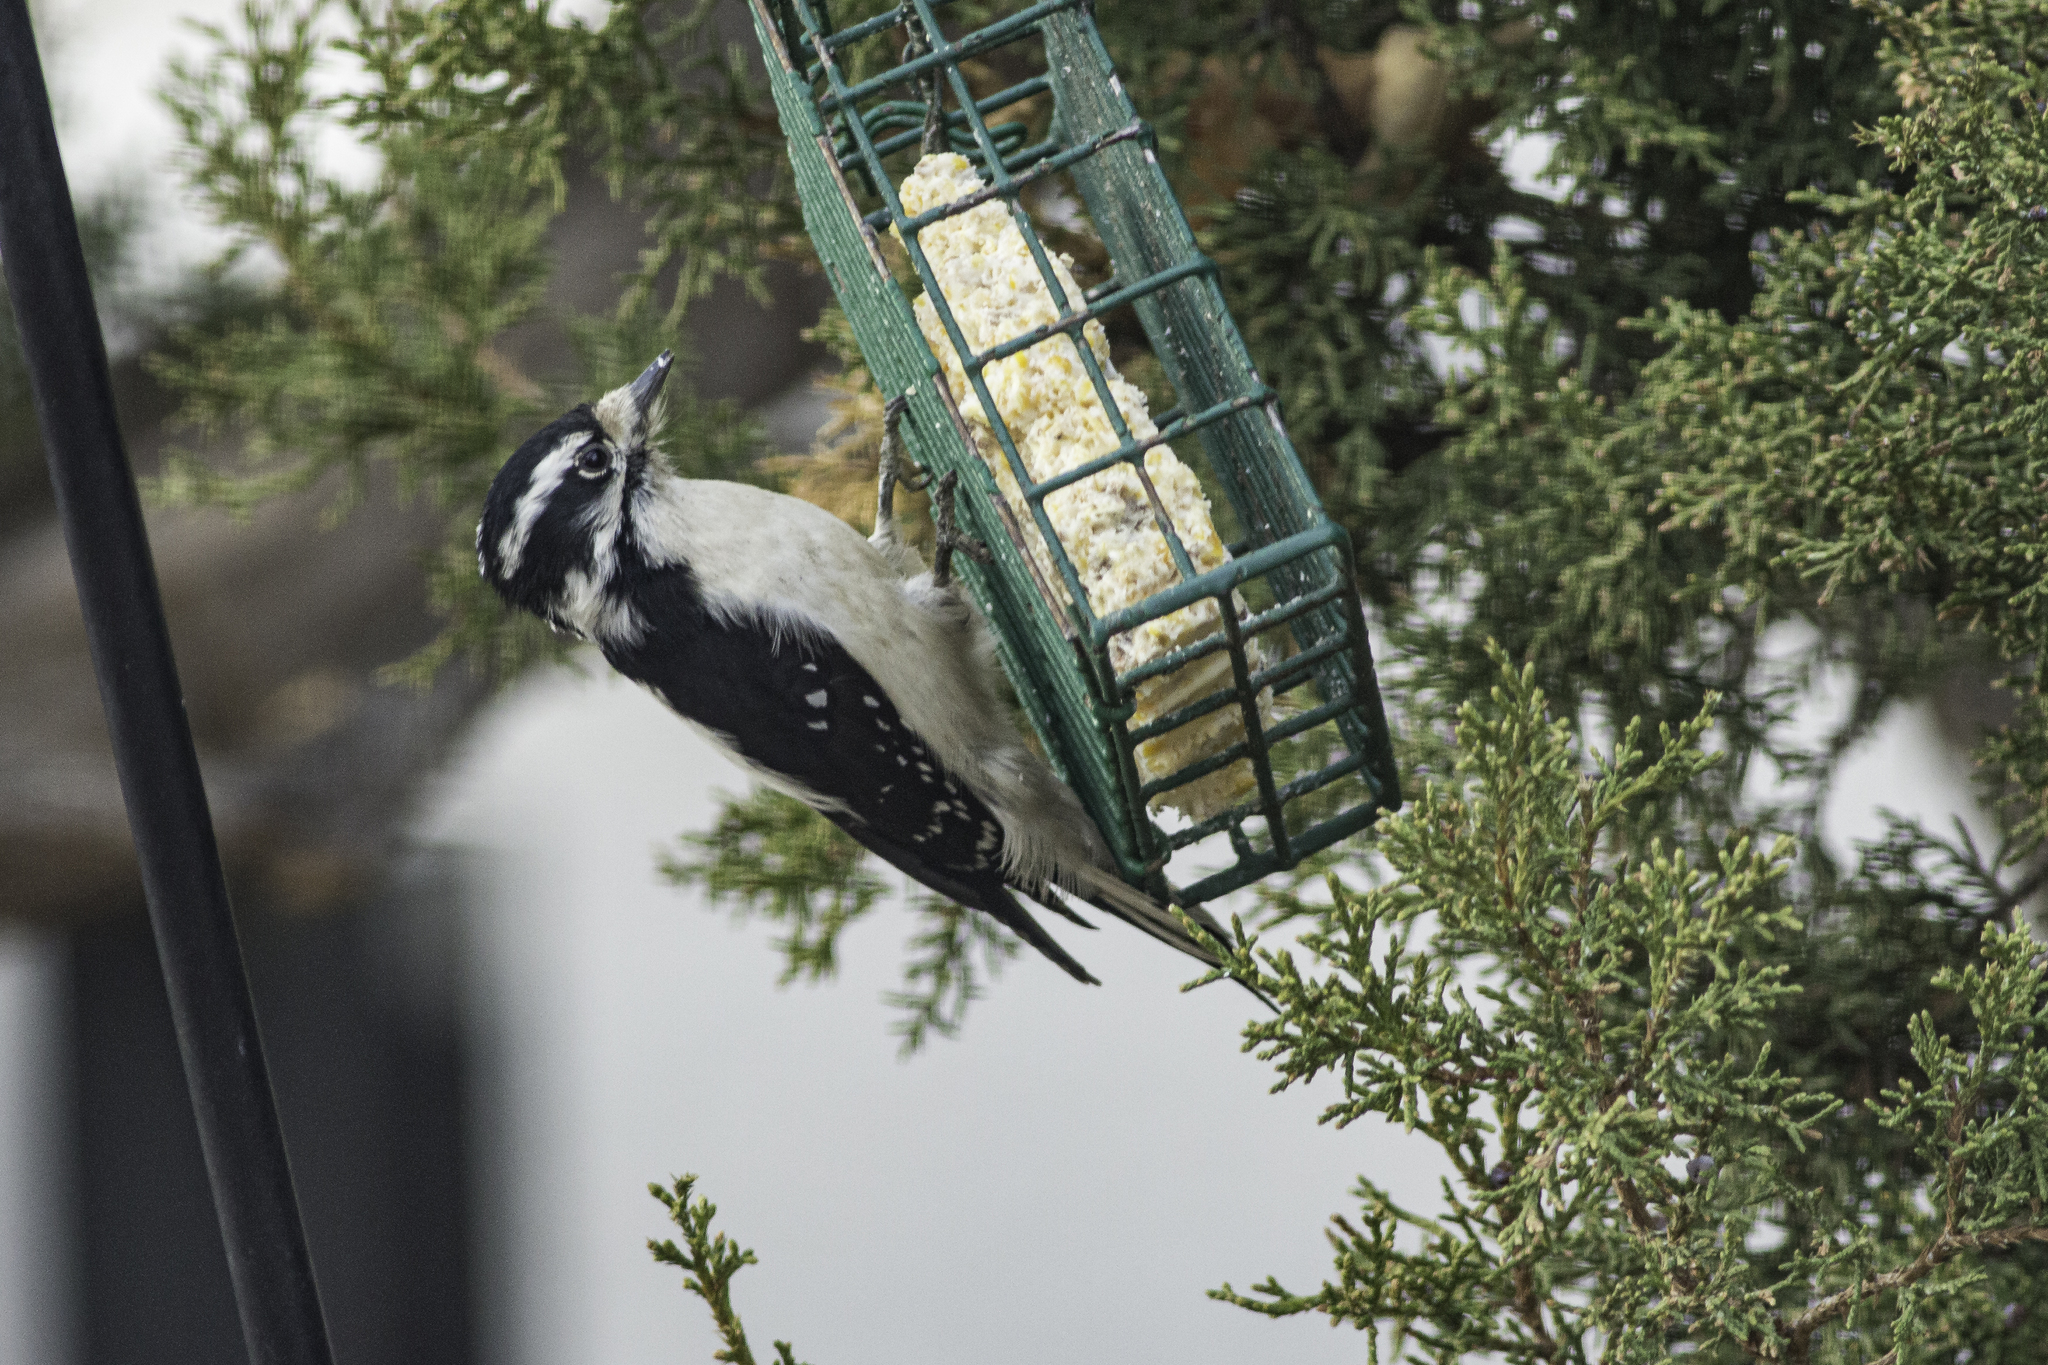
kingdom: Animalia
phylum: Chordata
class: Aves
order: Piciformes
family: Picidae
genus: Dryobates
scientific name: Dryobates pubescens
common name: Downy woodpecker
